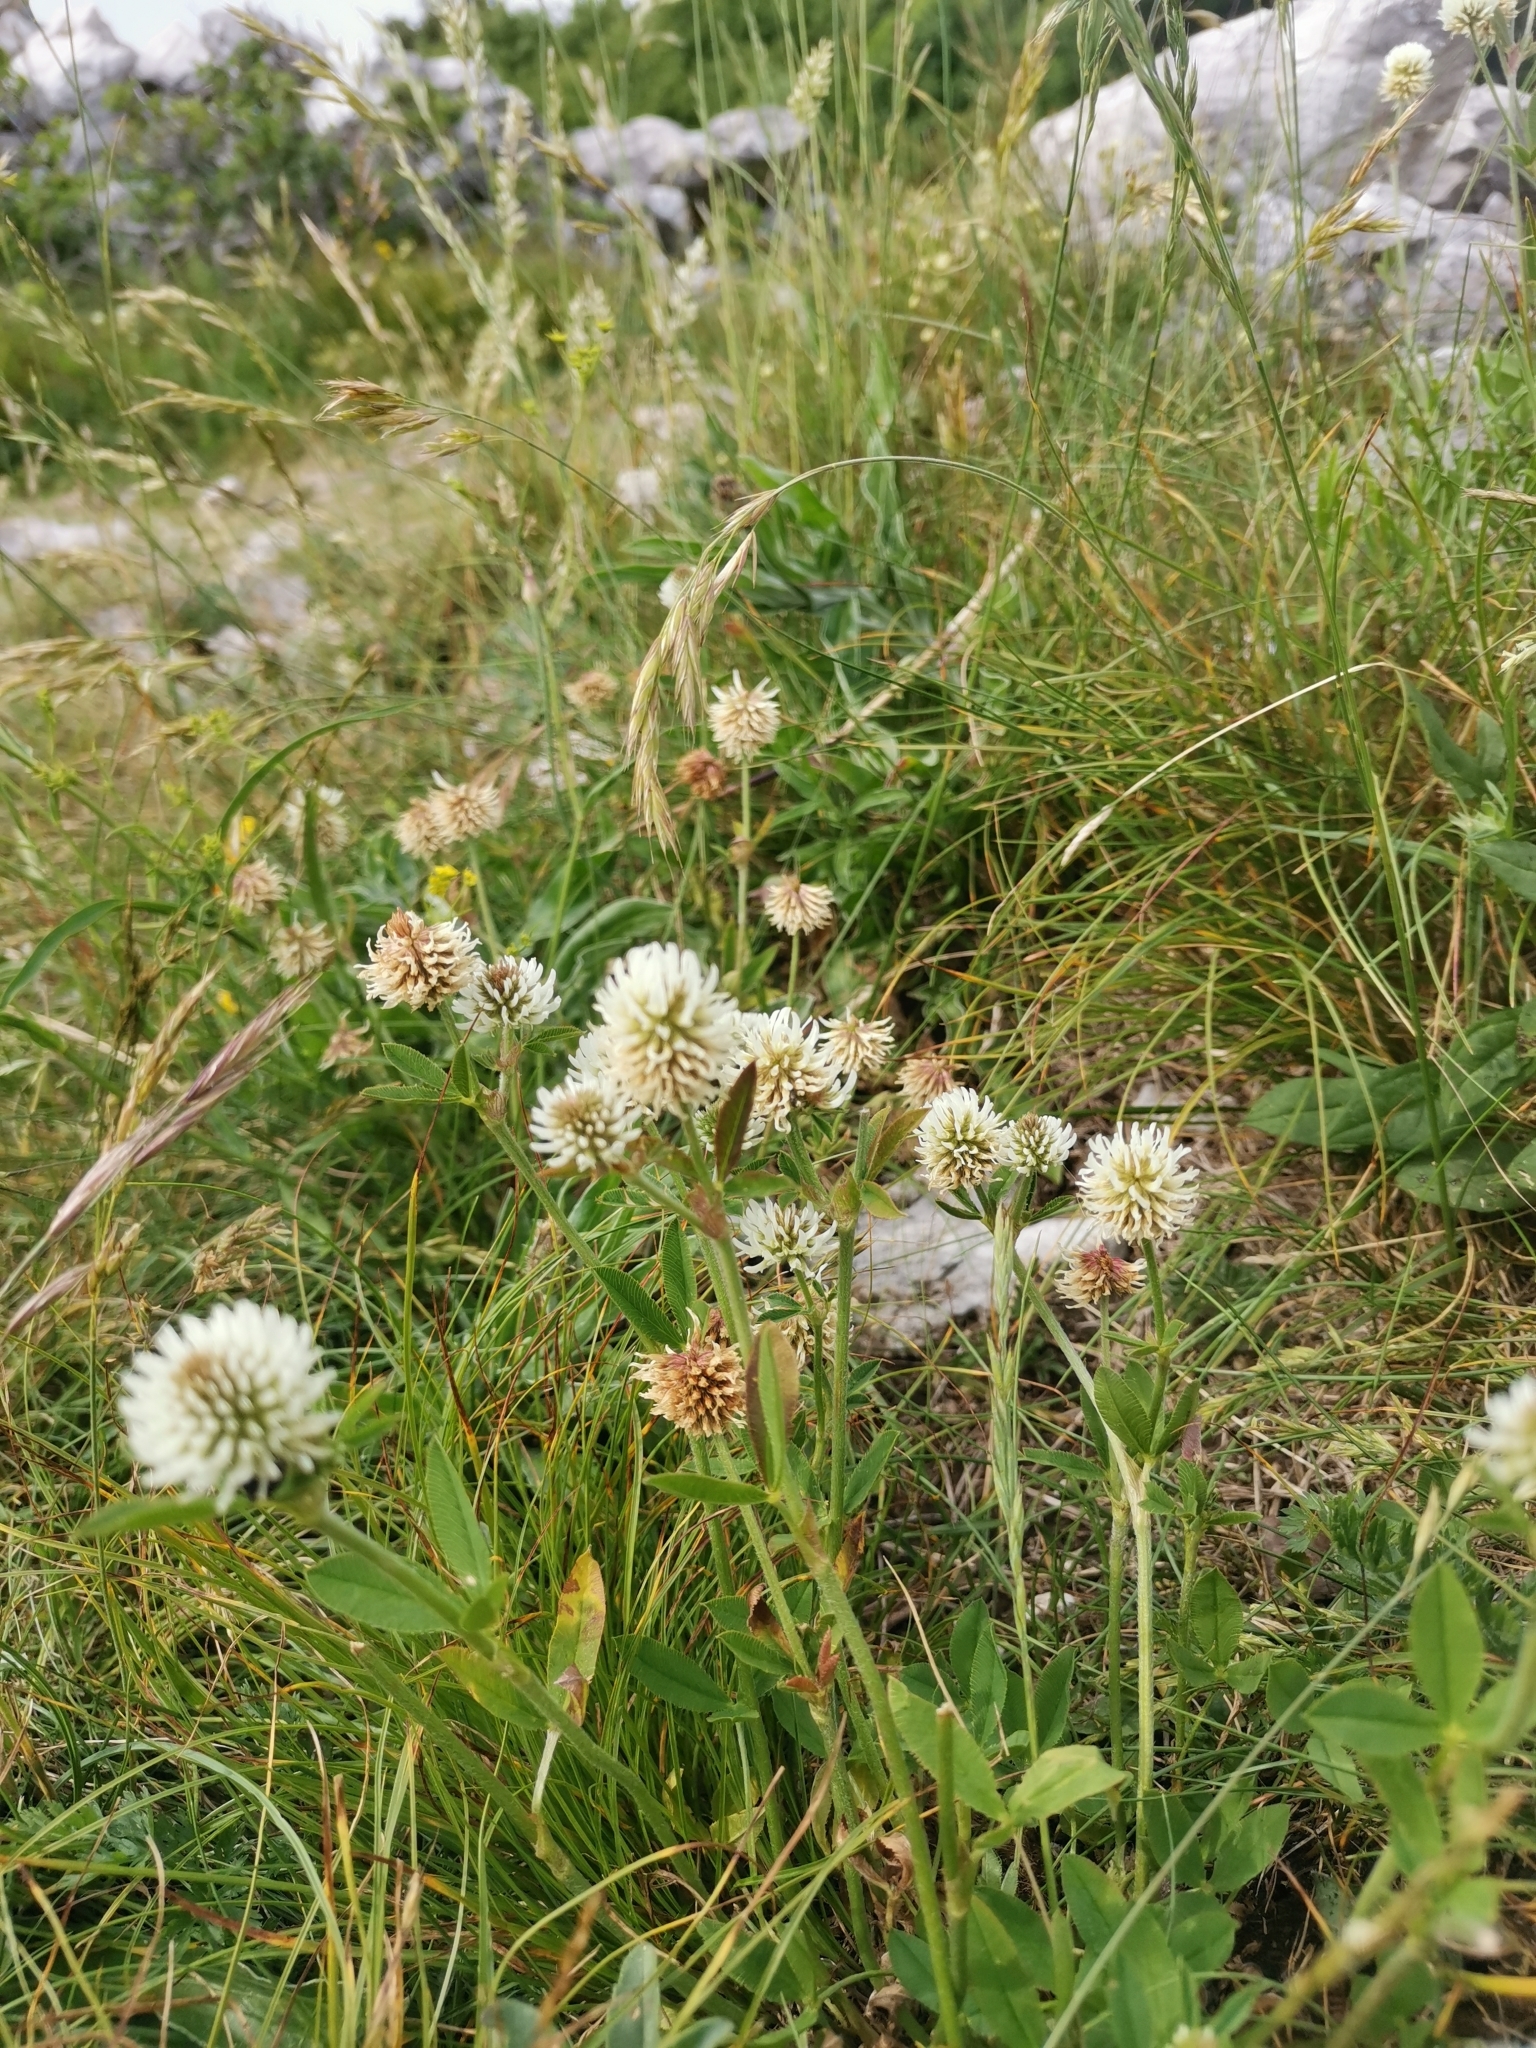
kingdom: Plantae
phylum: Tracheophyta
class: Magnoliopsida
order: Fabales
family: Fabaceae
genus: Trifolium
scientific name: Trifolium montanum
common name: Mountain clover
